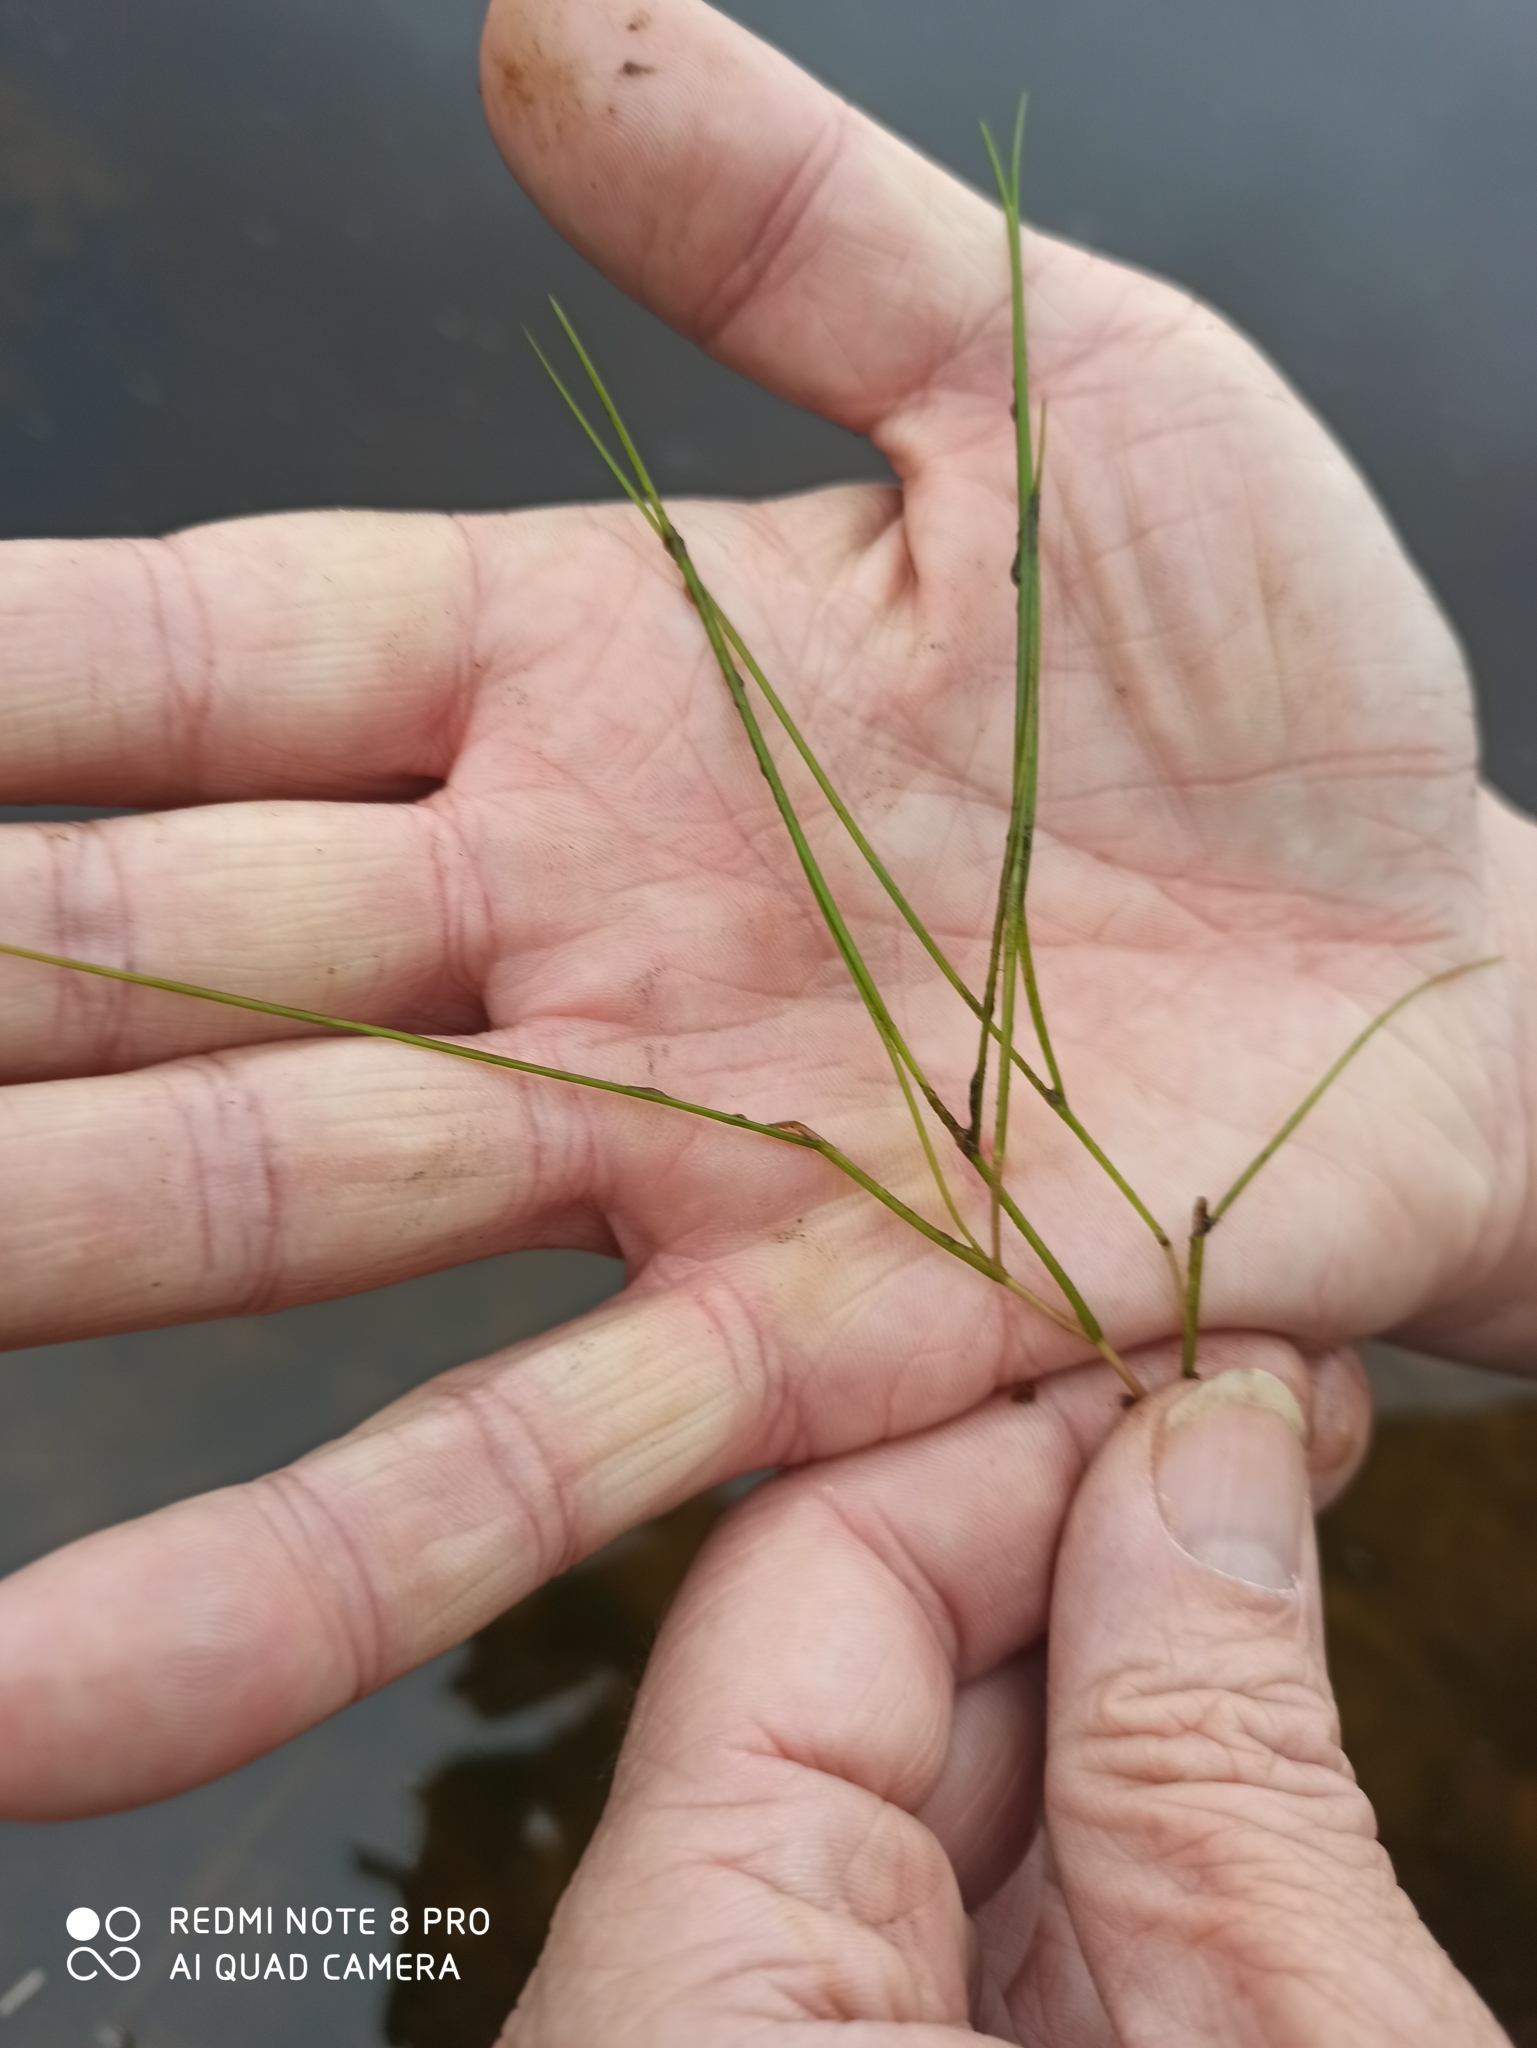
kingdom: Plantae
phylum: Tracheophyta
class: Liliopsida
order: Alismatales
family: Potamogetonaceae
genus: Stuckenia
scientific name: Stuckenia pectinata
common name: Sago pondweed
